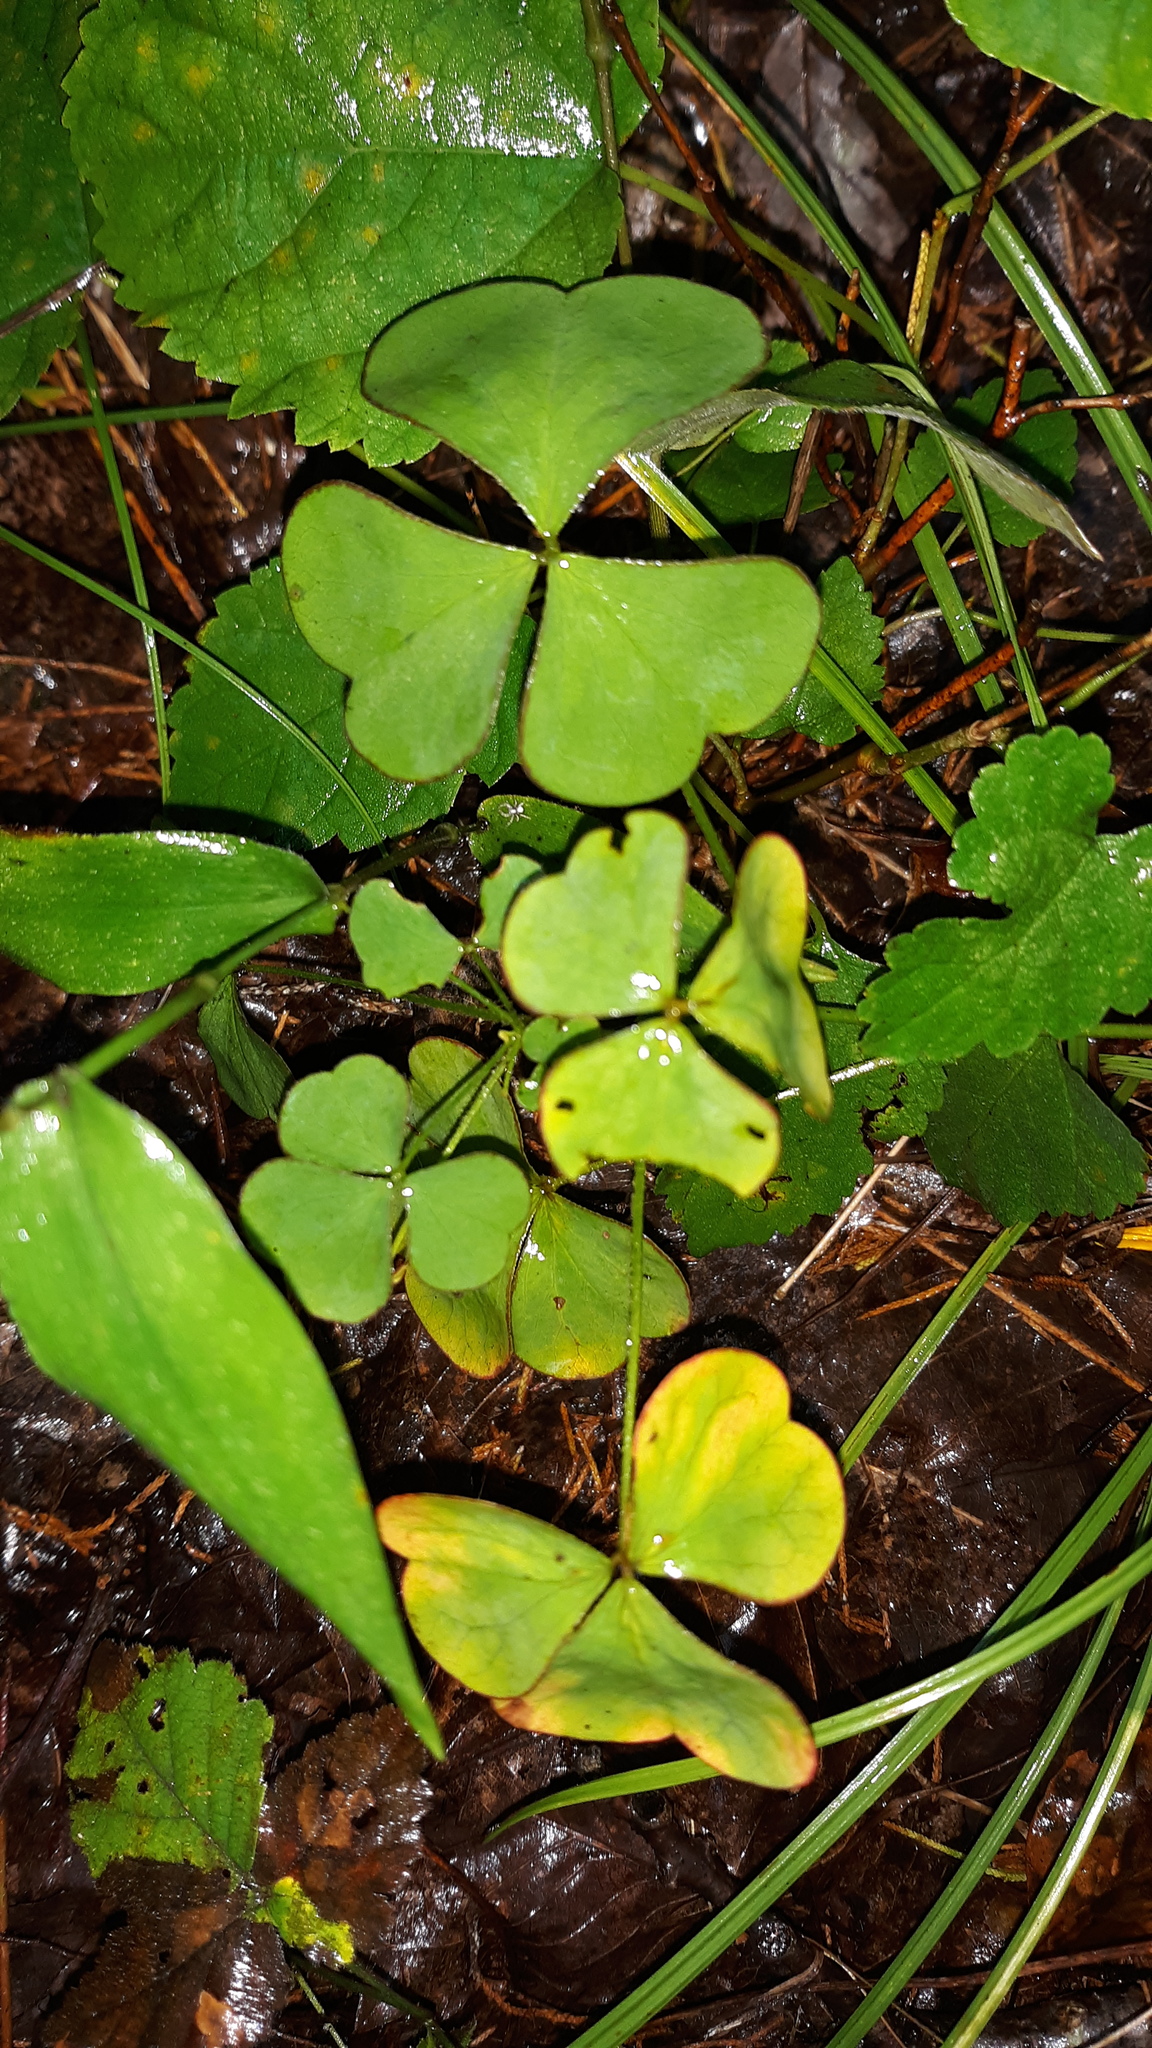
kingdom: Plantae
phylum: Tracheophyta
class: Magnoliopsida
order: Oxalidales
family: Oxalidaceae
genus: Oxalis
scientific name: Oxalis grandis
